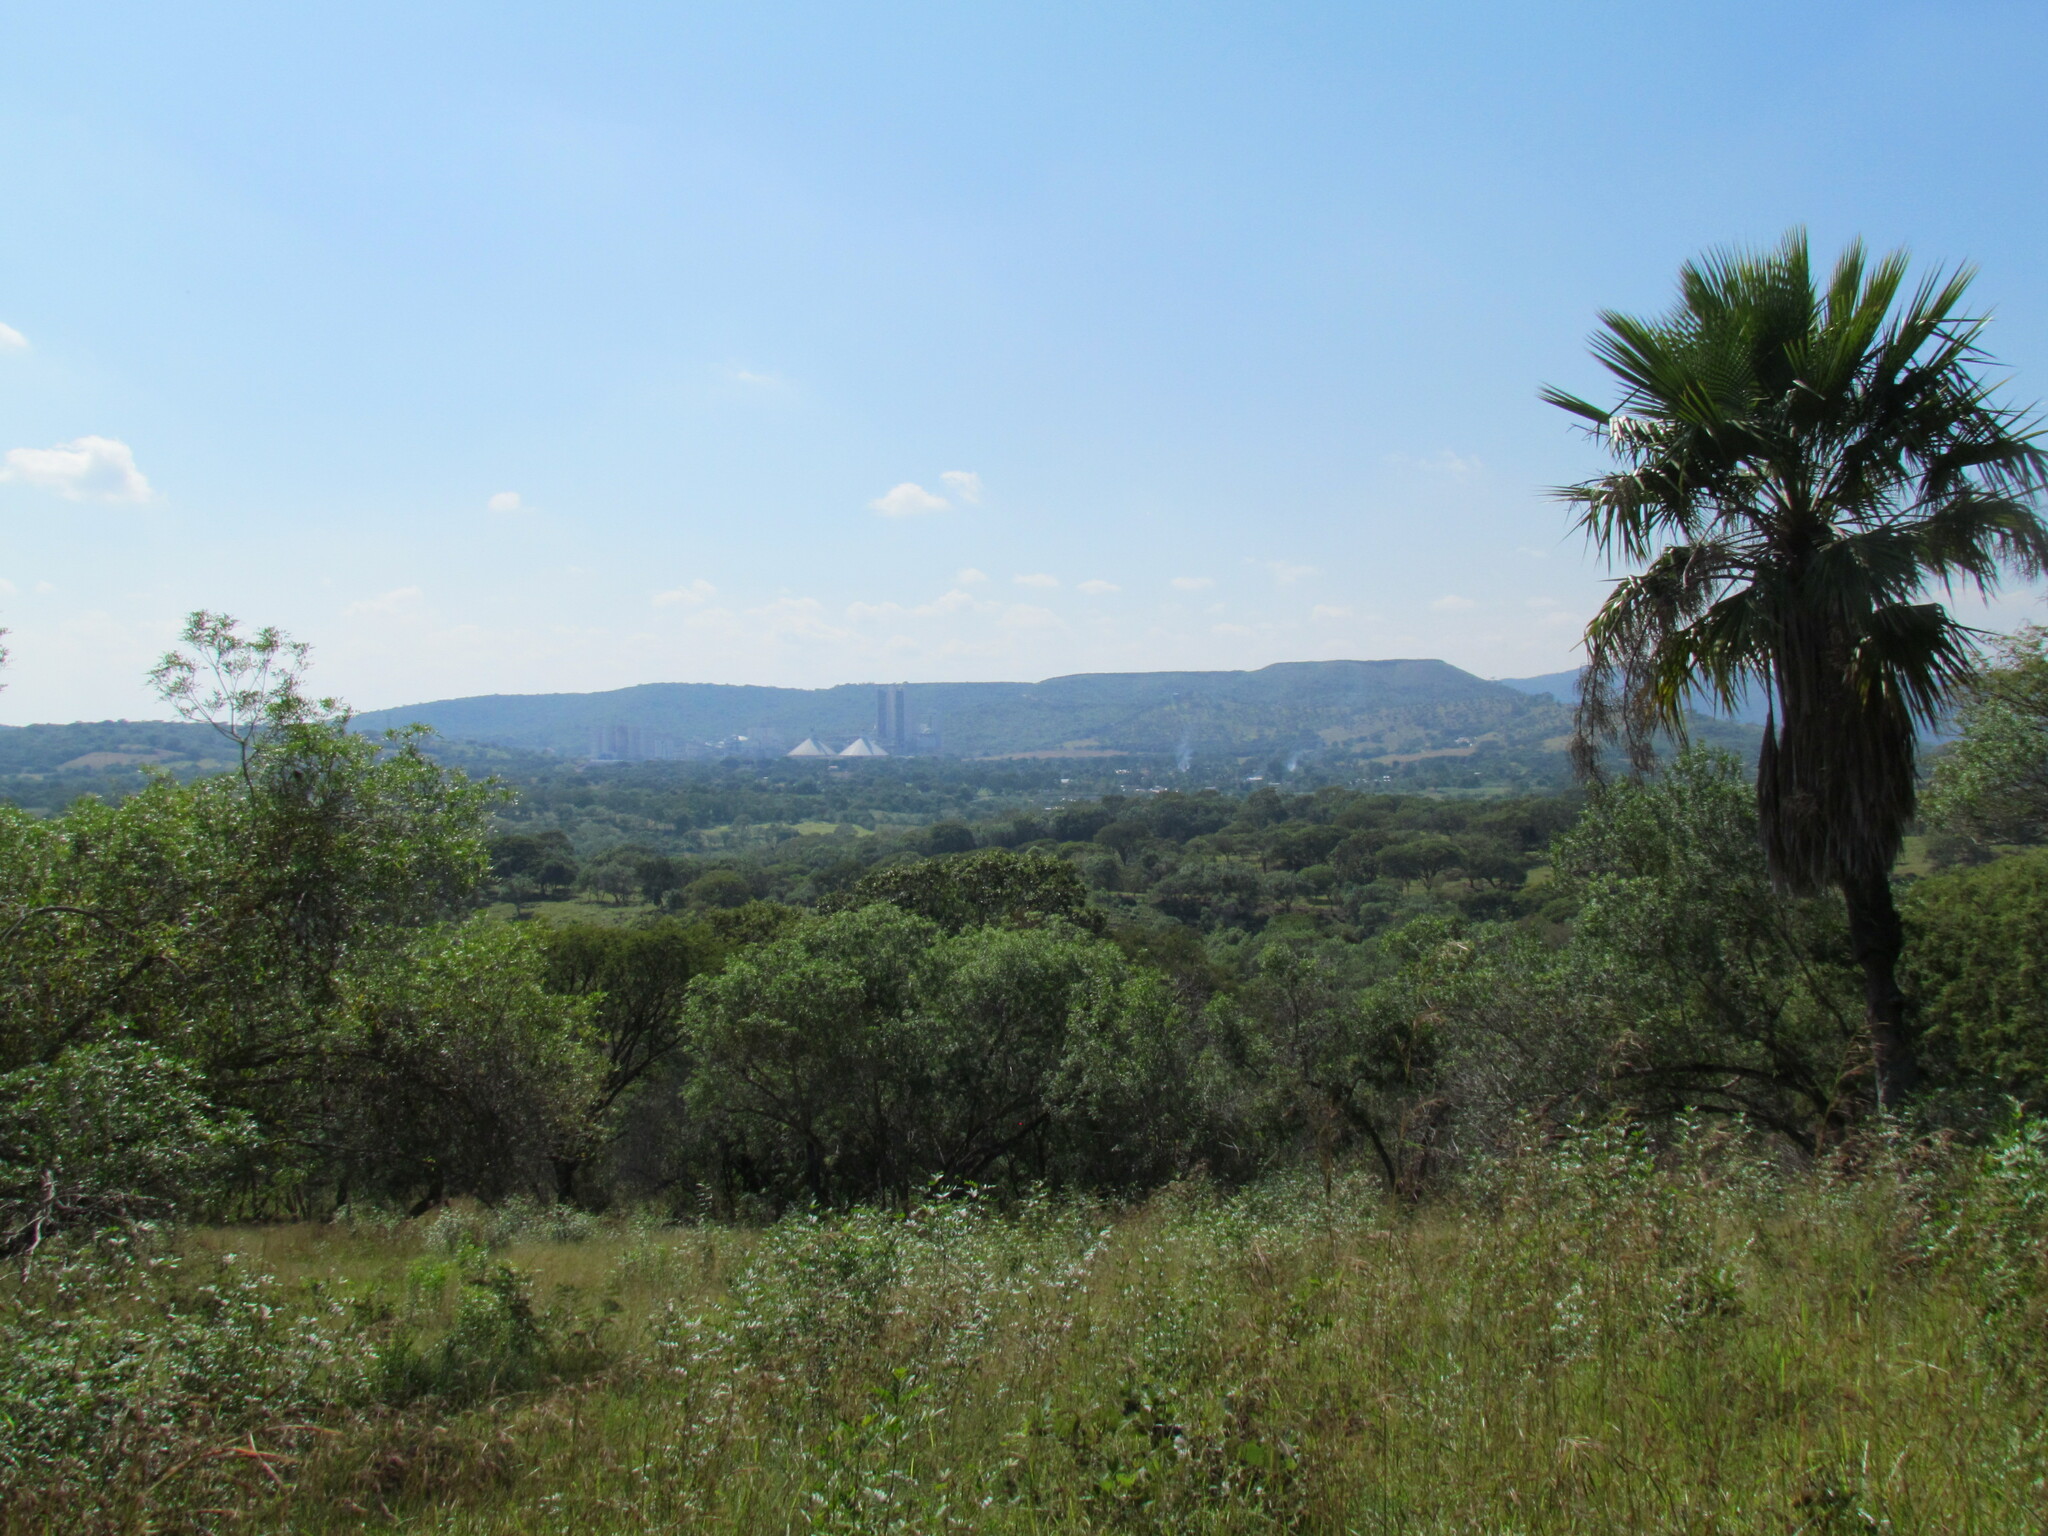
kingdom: Plantae
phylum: Tracheophyta
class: Liliopsida
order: Arecales
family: Arecaceae
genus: Brahea
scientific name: Brahea dulcis
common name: Apak palm
